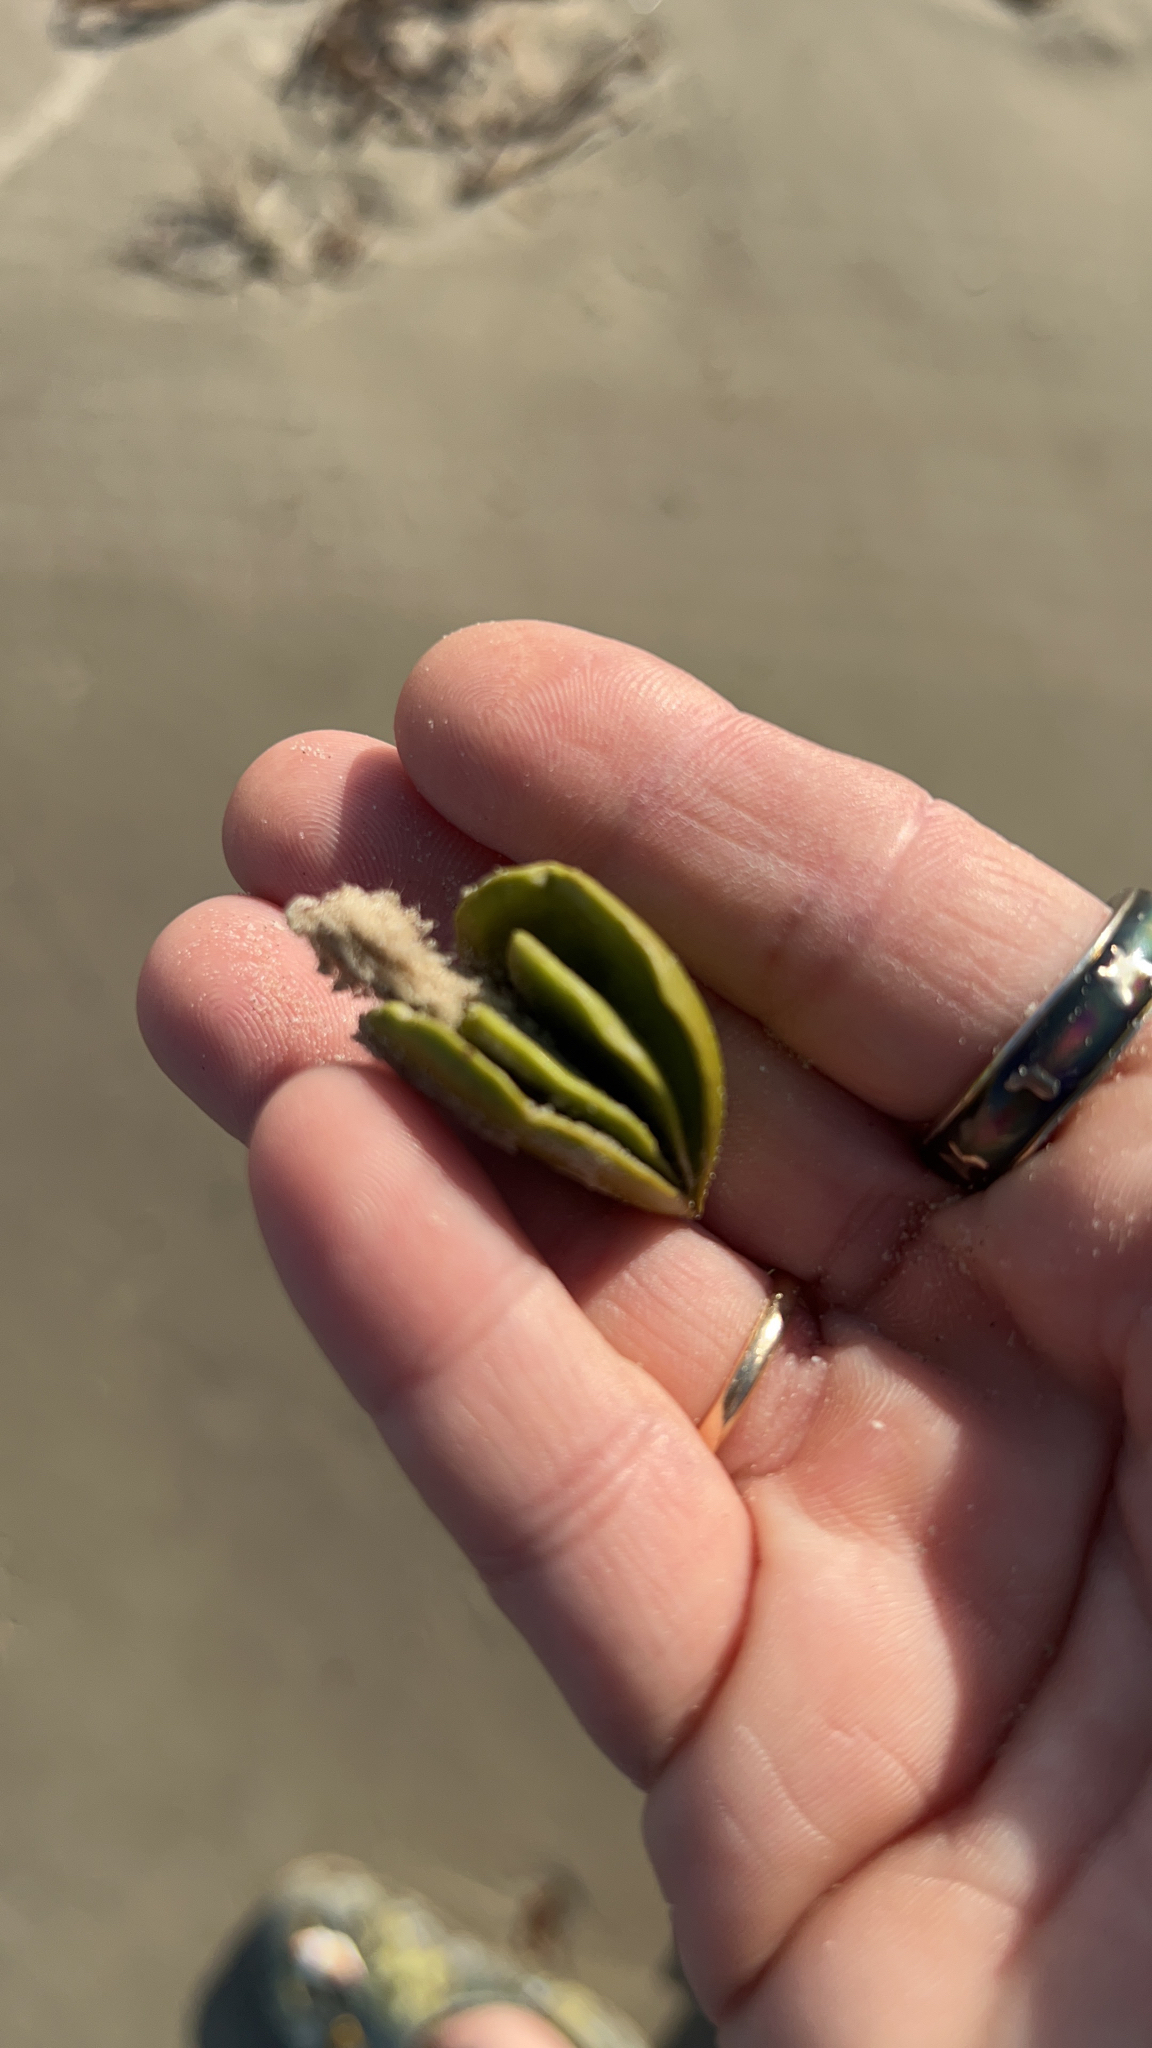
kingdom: Plantae
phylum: Tracheophyta
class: Magnoliopsida
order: Lamiales
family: Acanthaceae
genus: Avicennia
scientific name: Avicennia germinans
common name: Black mangrove
